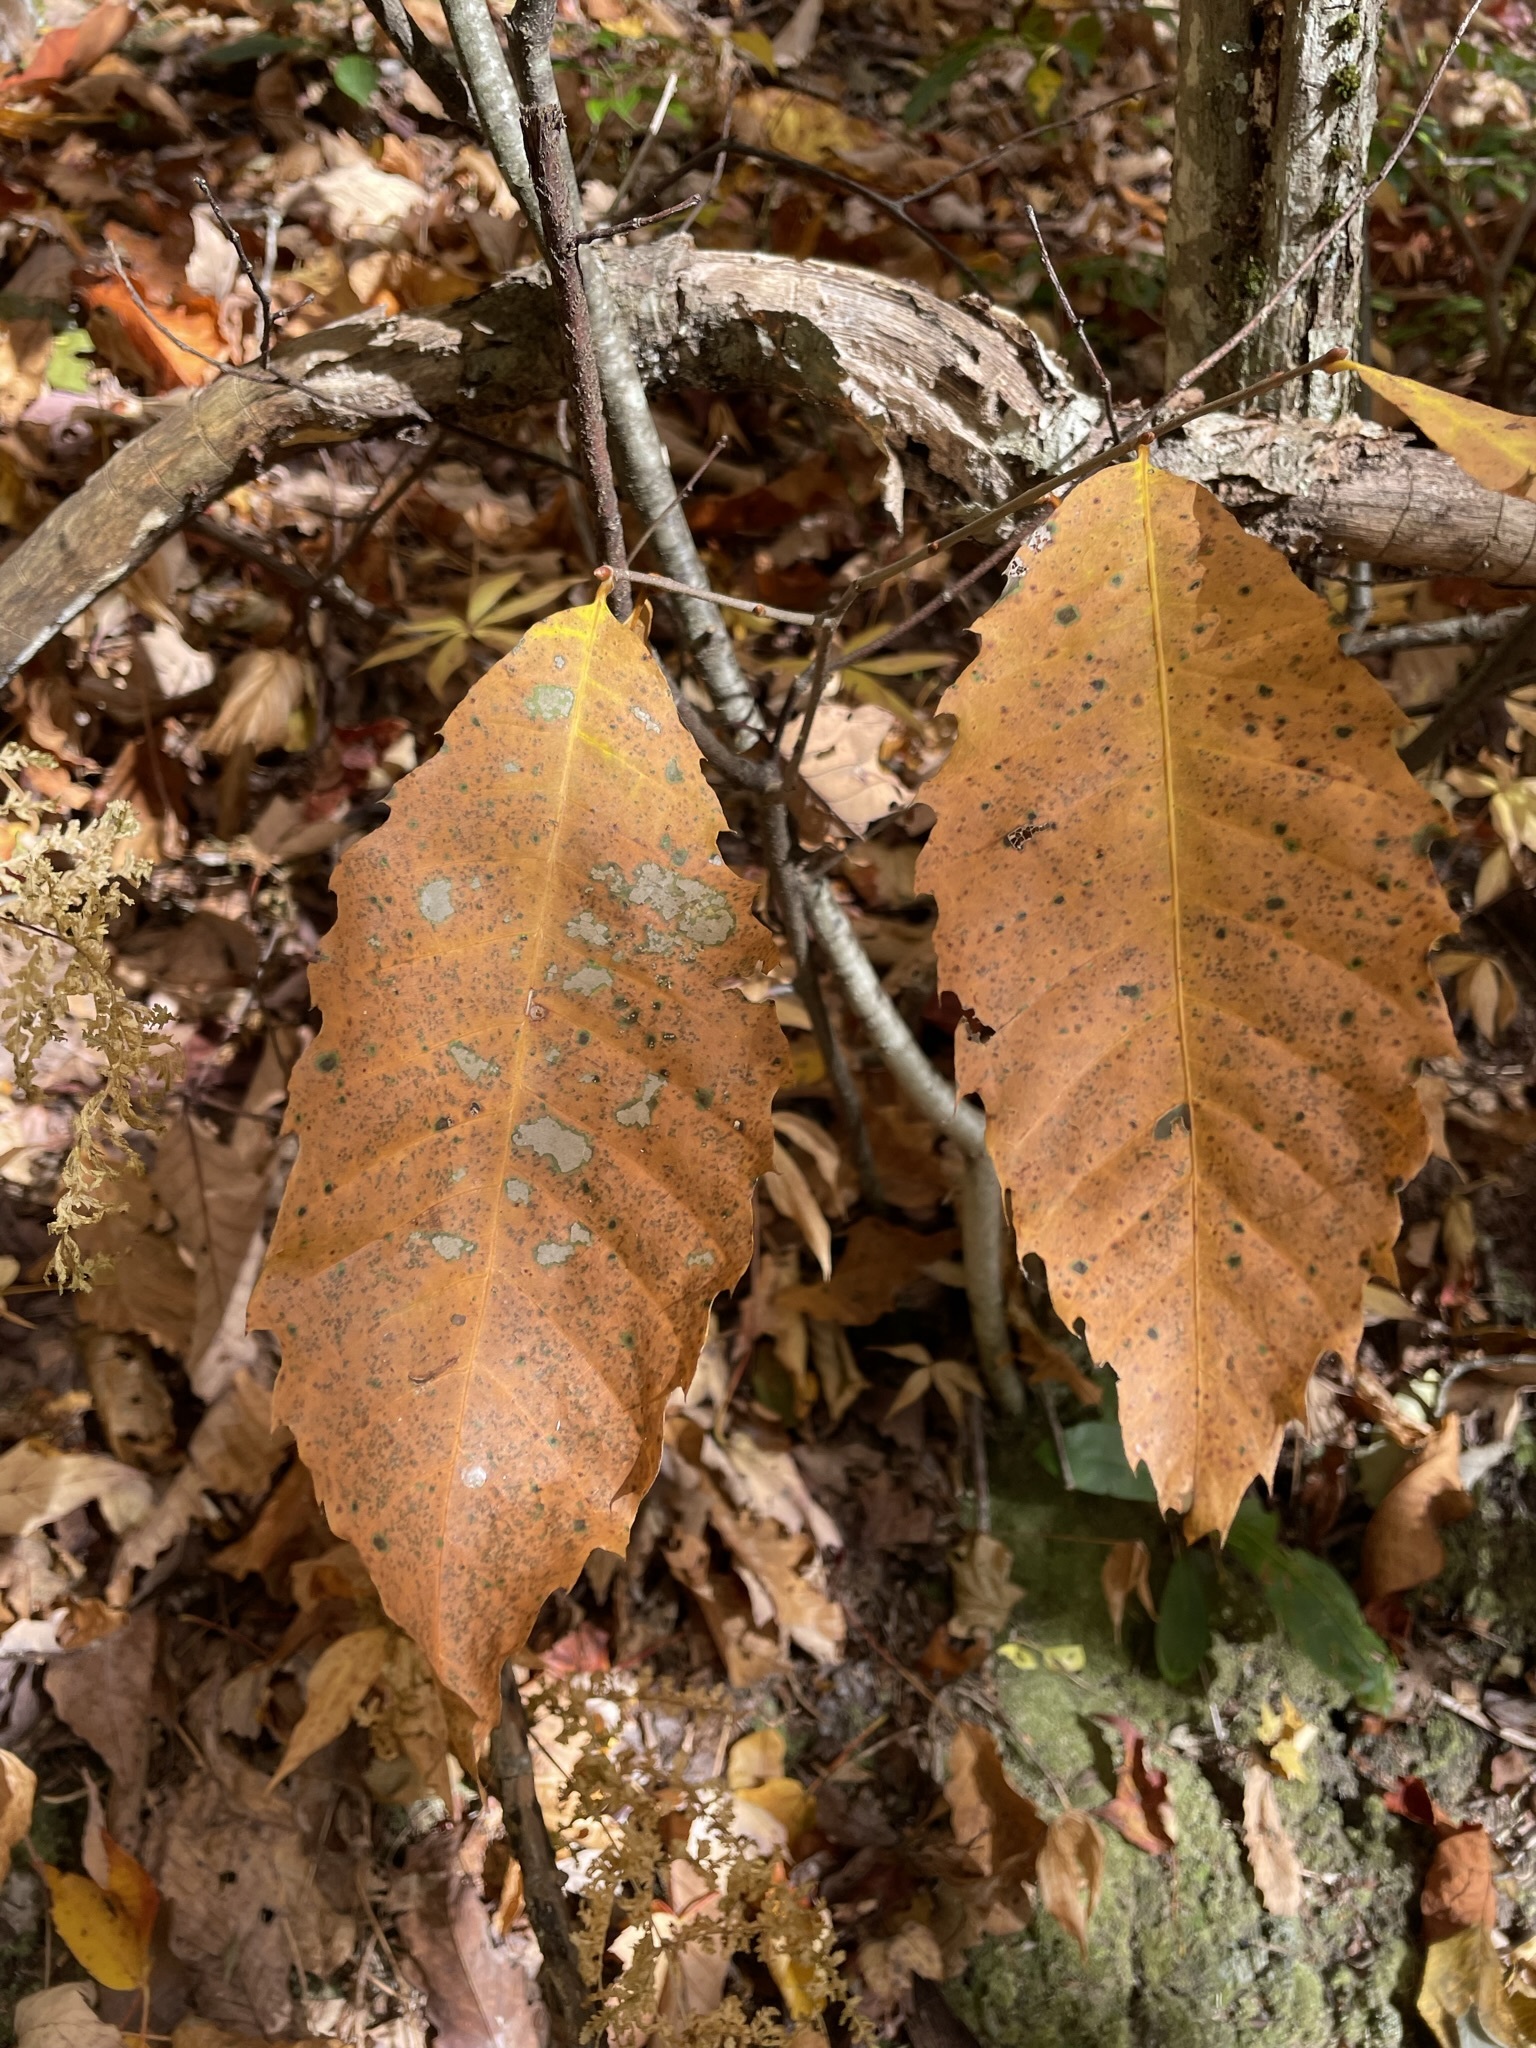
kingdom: Plantae
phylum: Tracheophyta
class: Magnoliopsida
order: Fagales
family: Fagaceae
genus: Castanea
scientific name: Castanea dentata
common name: American chestnut
